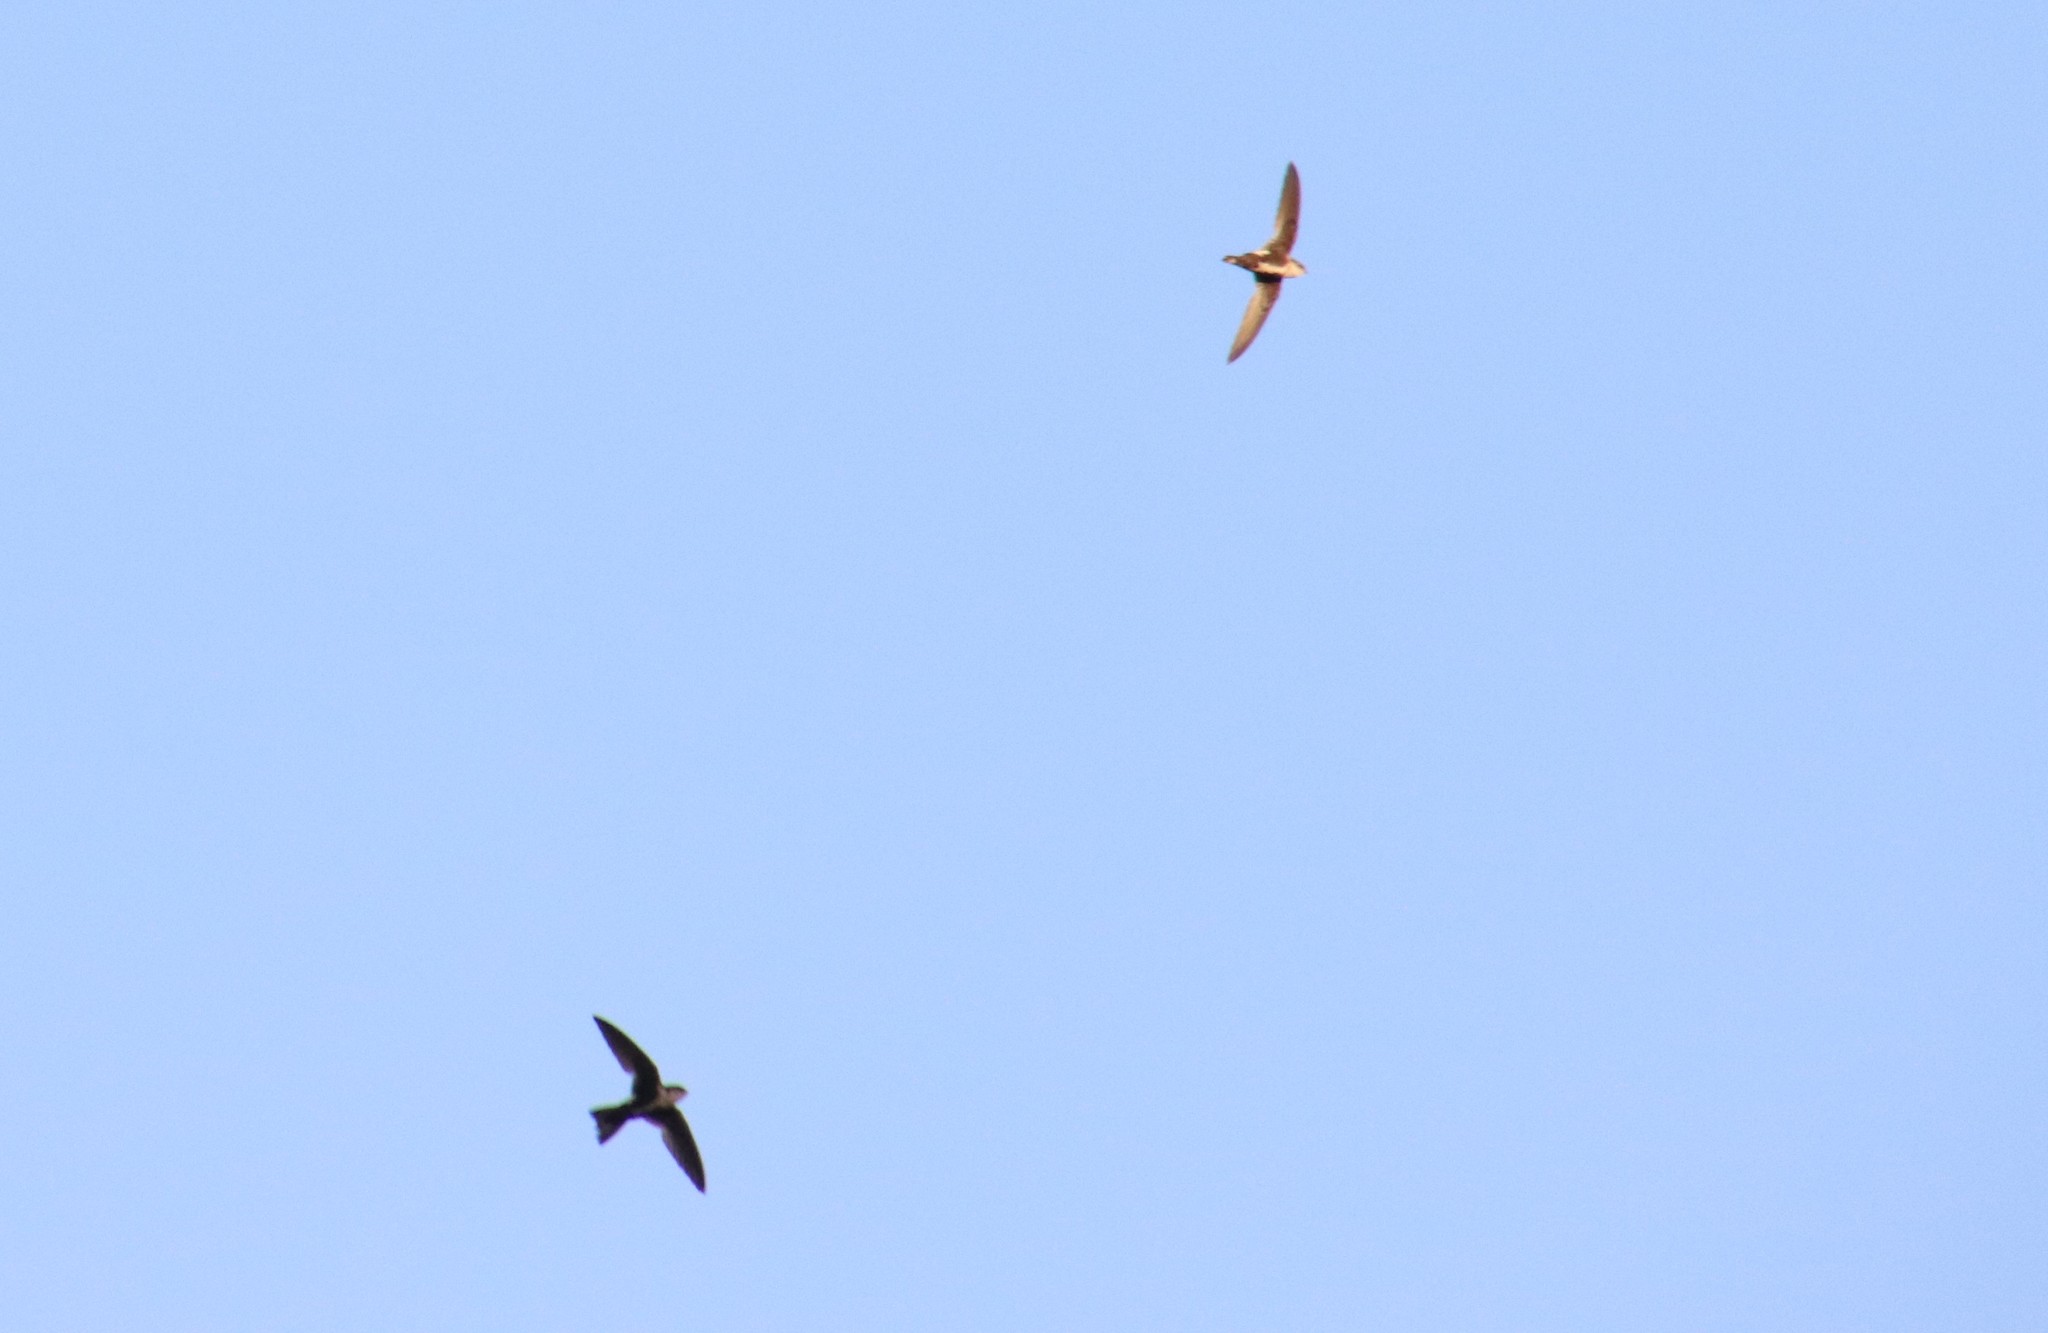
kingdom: Animalia
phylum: Chordata
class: Aves
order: Apodiformes
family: Apodidae
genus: Aeronautes
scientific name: Aeronautes saxatalis
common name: White-throated swift
